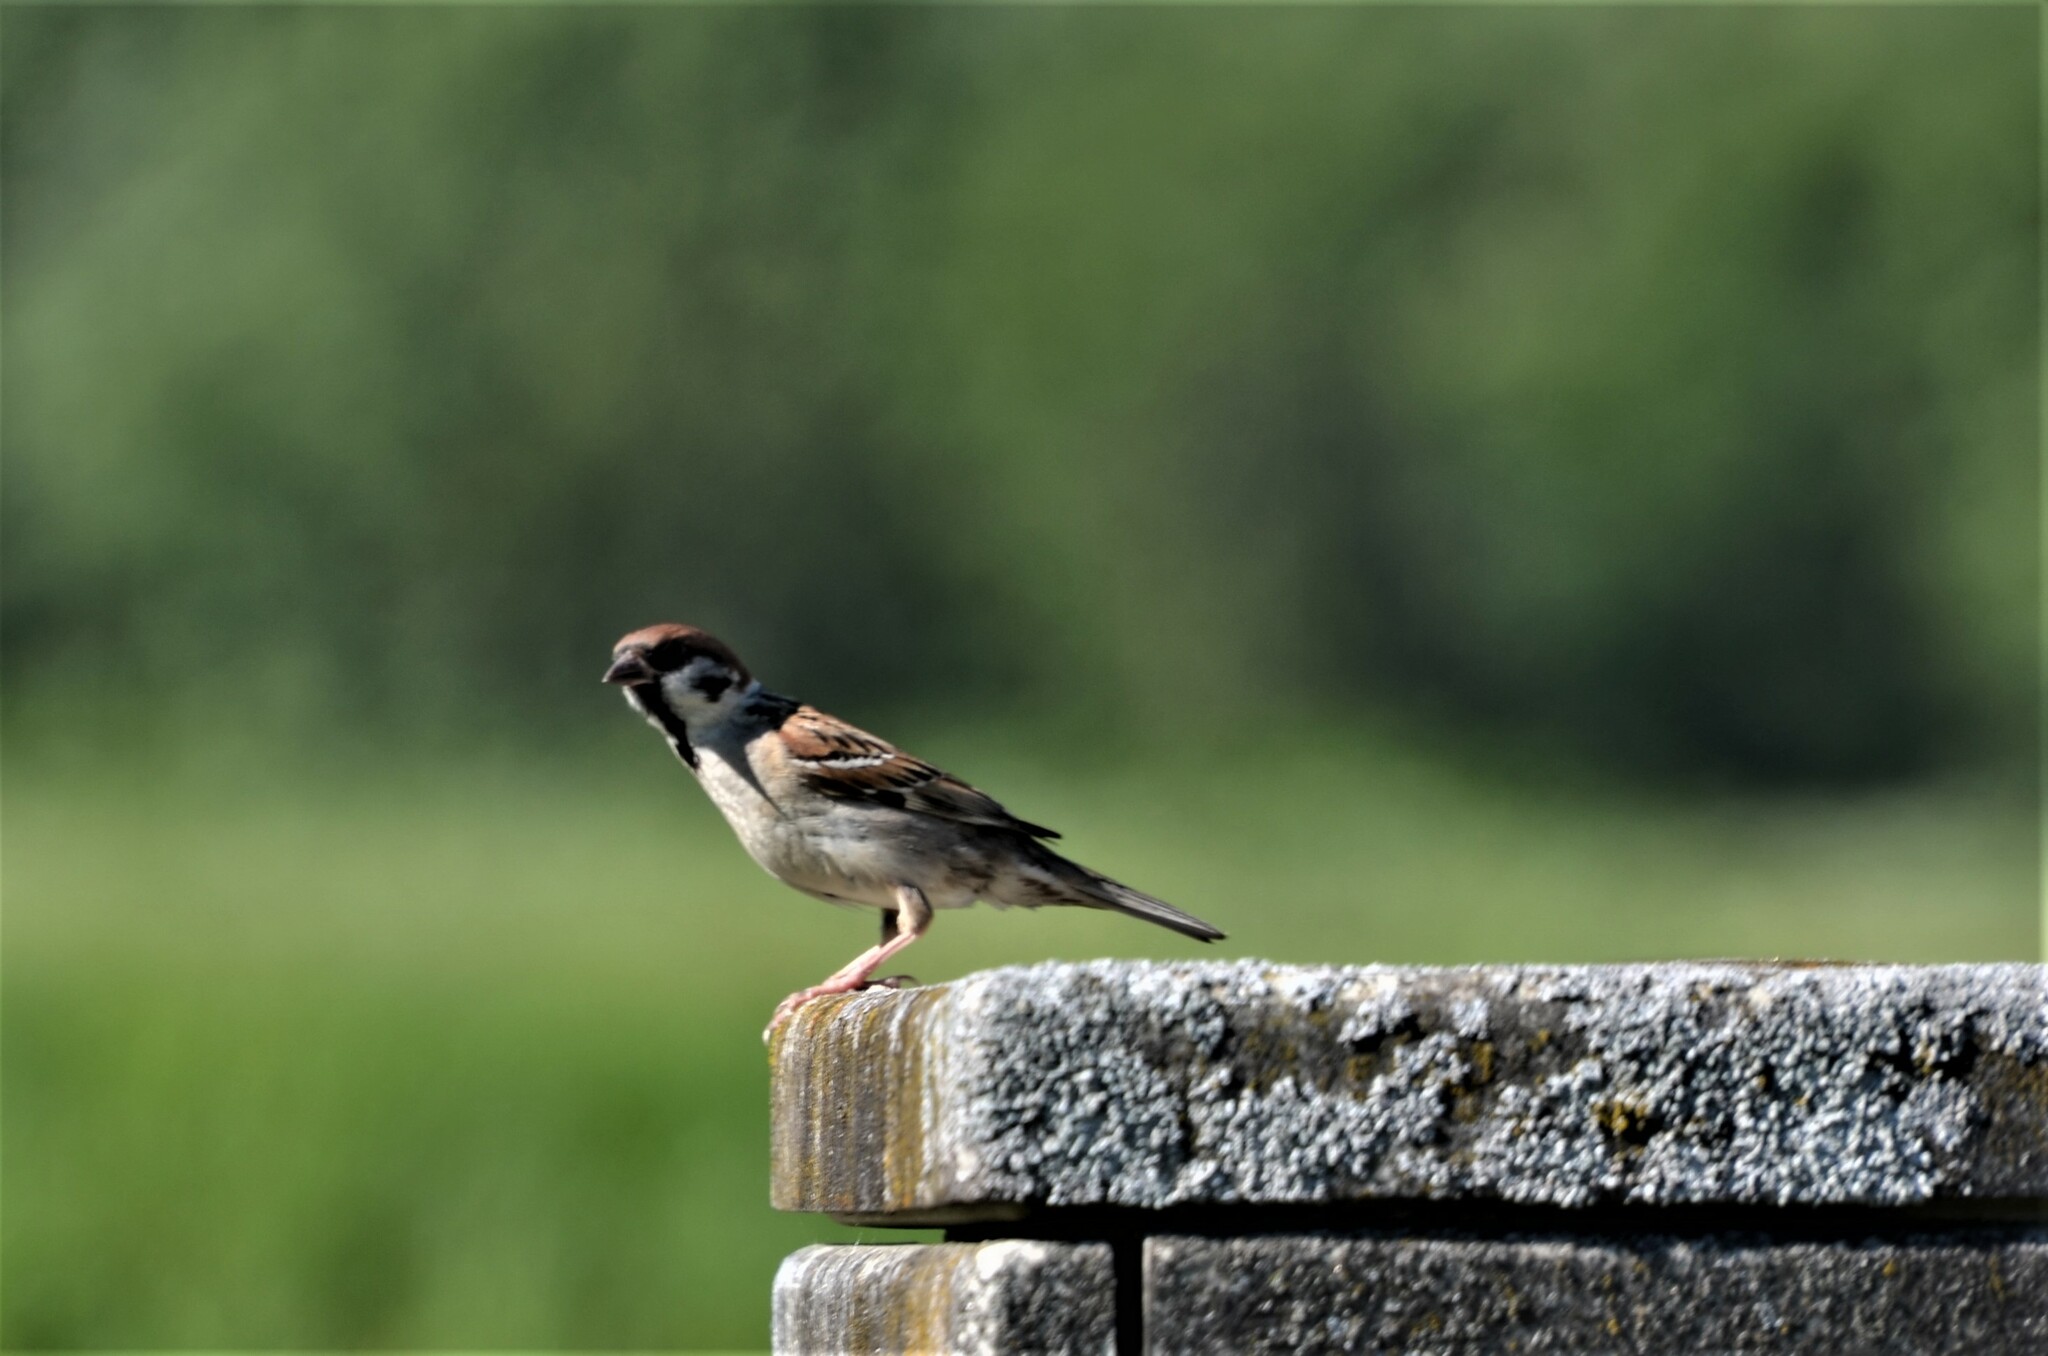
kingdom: Animalia
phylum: Chordata
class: Aves
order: Passeriformes
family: Passeridae
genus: Passer
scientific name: Passer montanus
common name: Eurasian tree sparrow
